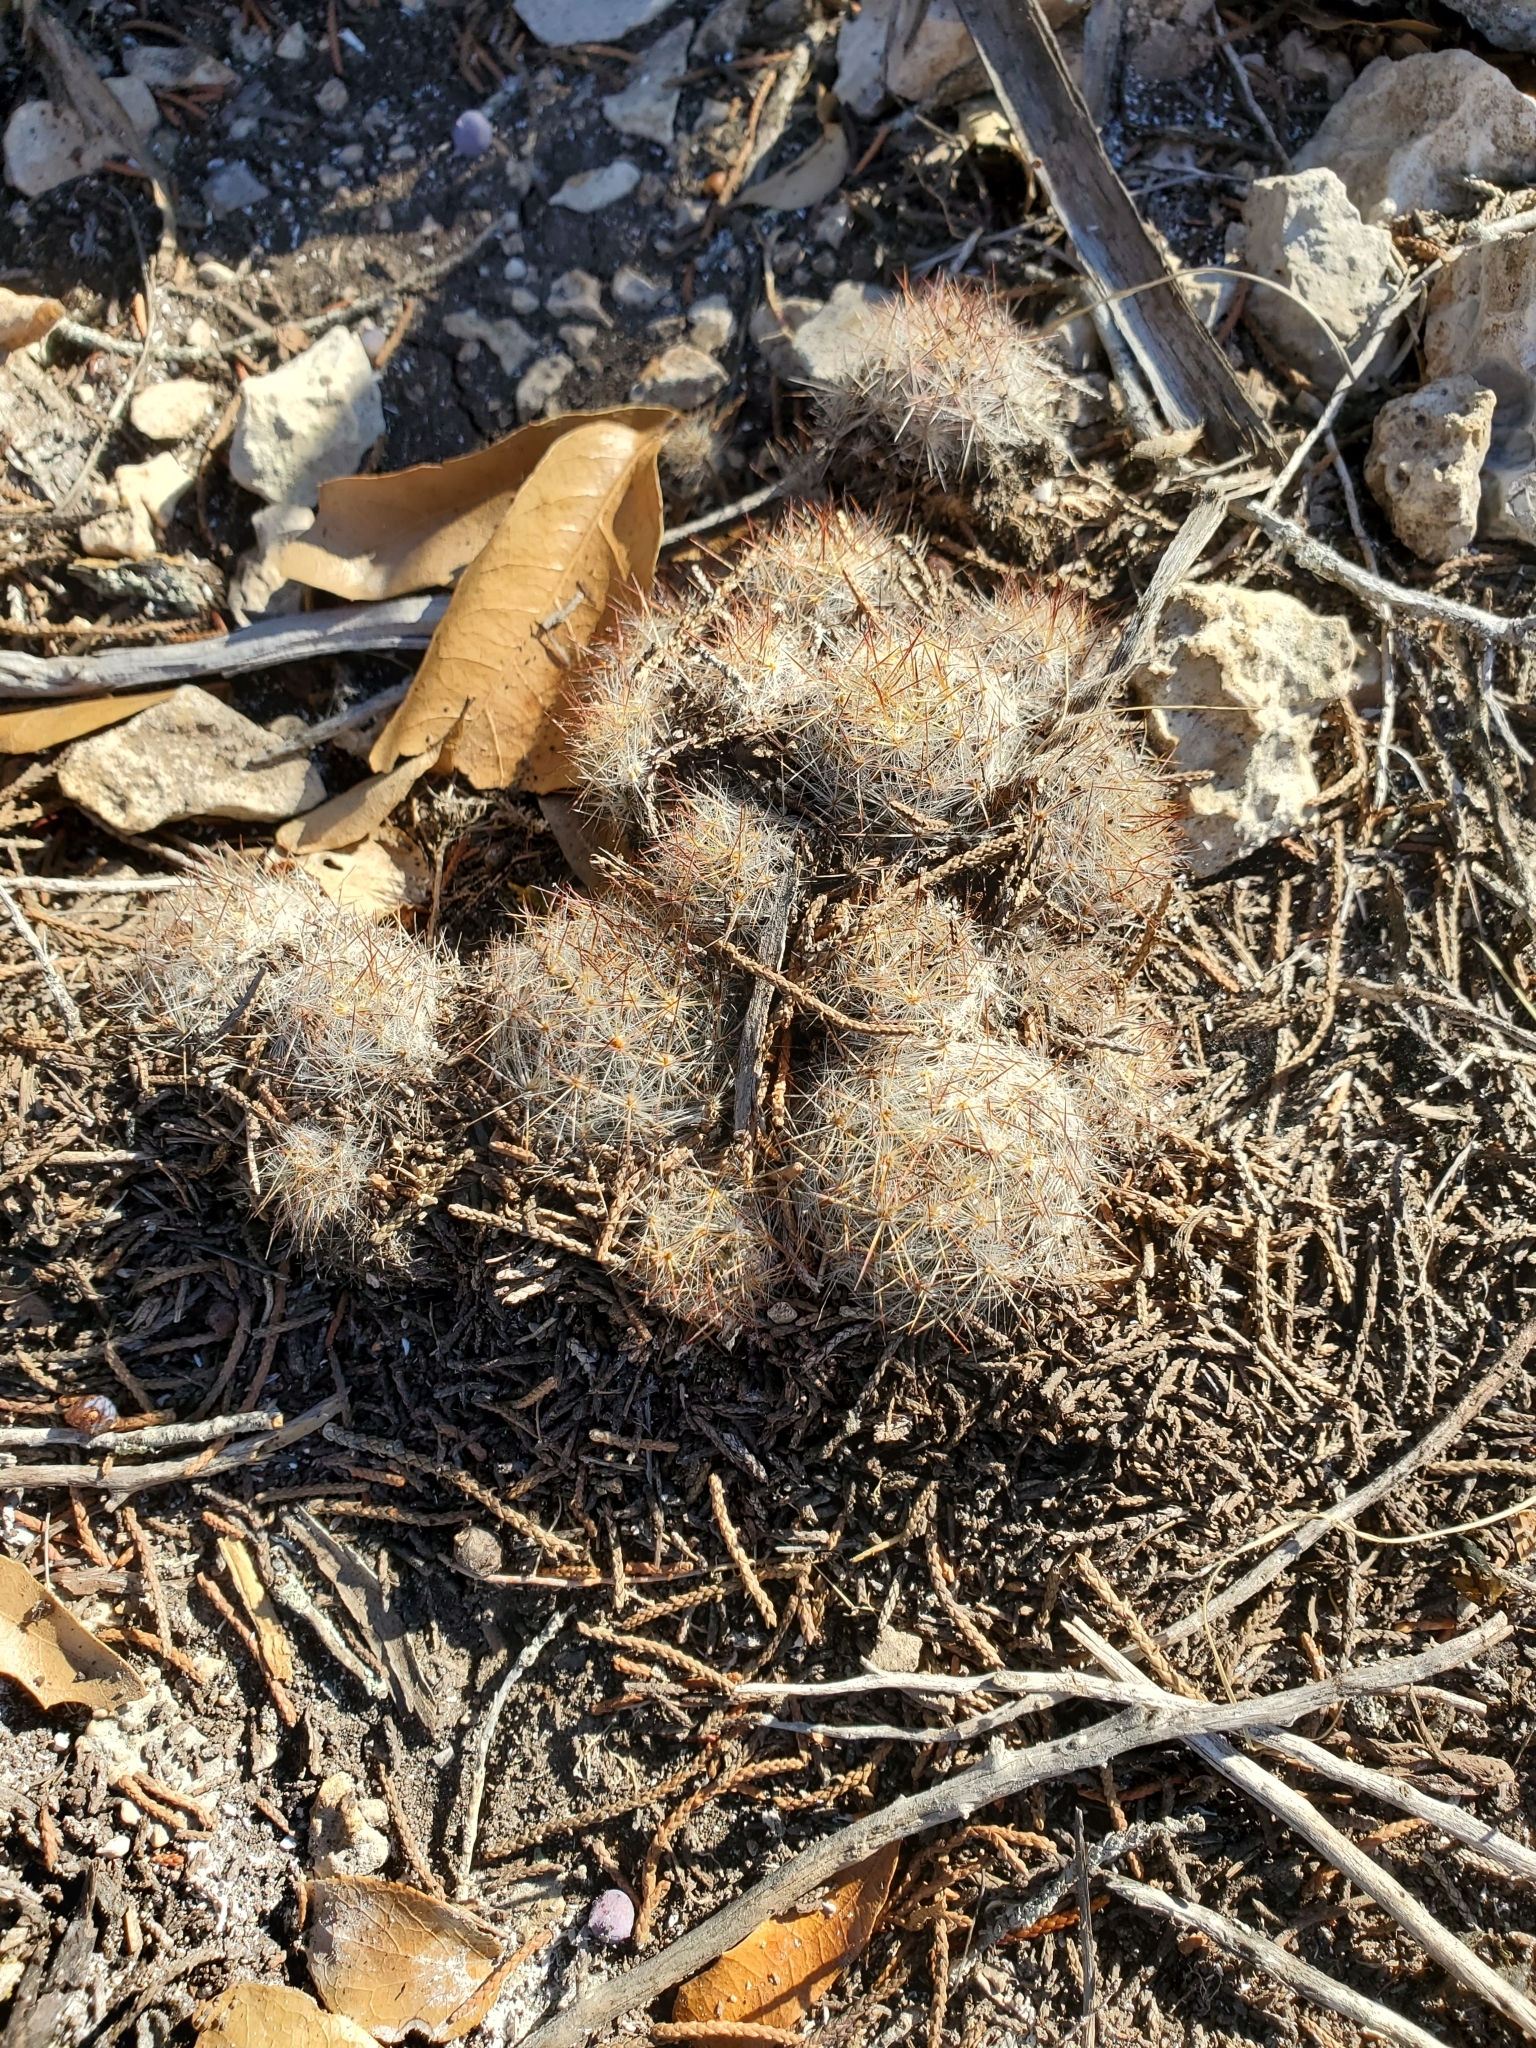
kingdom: Plantae
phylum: Tracheophyta
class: Magnoliopsida
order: Caryophyllales
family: Cactaceae
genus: Mammillaria
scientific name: Mammillaria prolifera
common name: Texas nipple cactus
